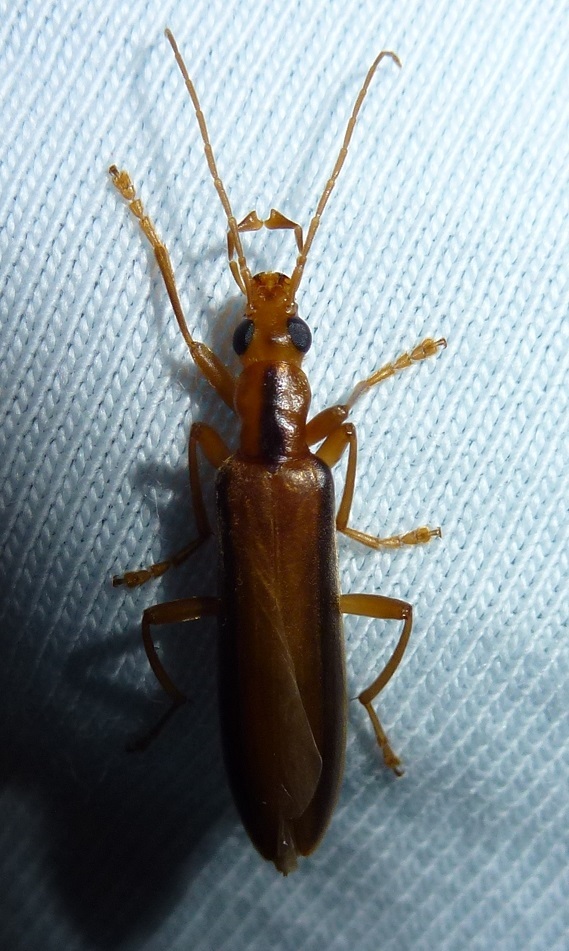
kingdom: Animalia
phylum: Arthropoda
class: Insecta
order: Coleoptera
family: Oedemeridae
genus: Thelyphassa
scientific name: Thelyphassa
